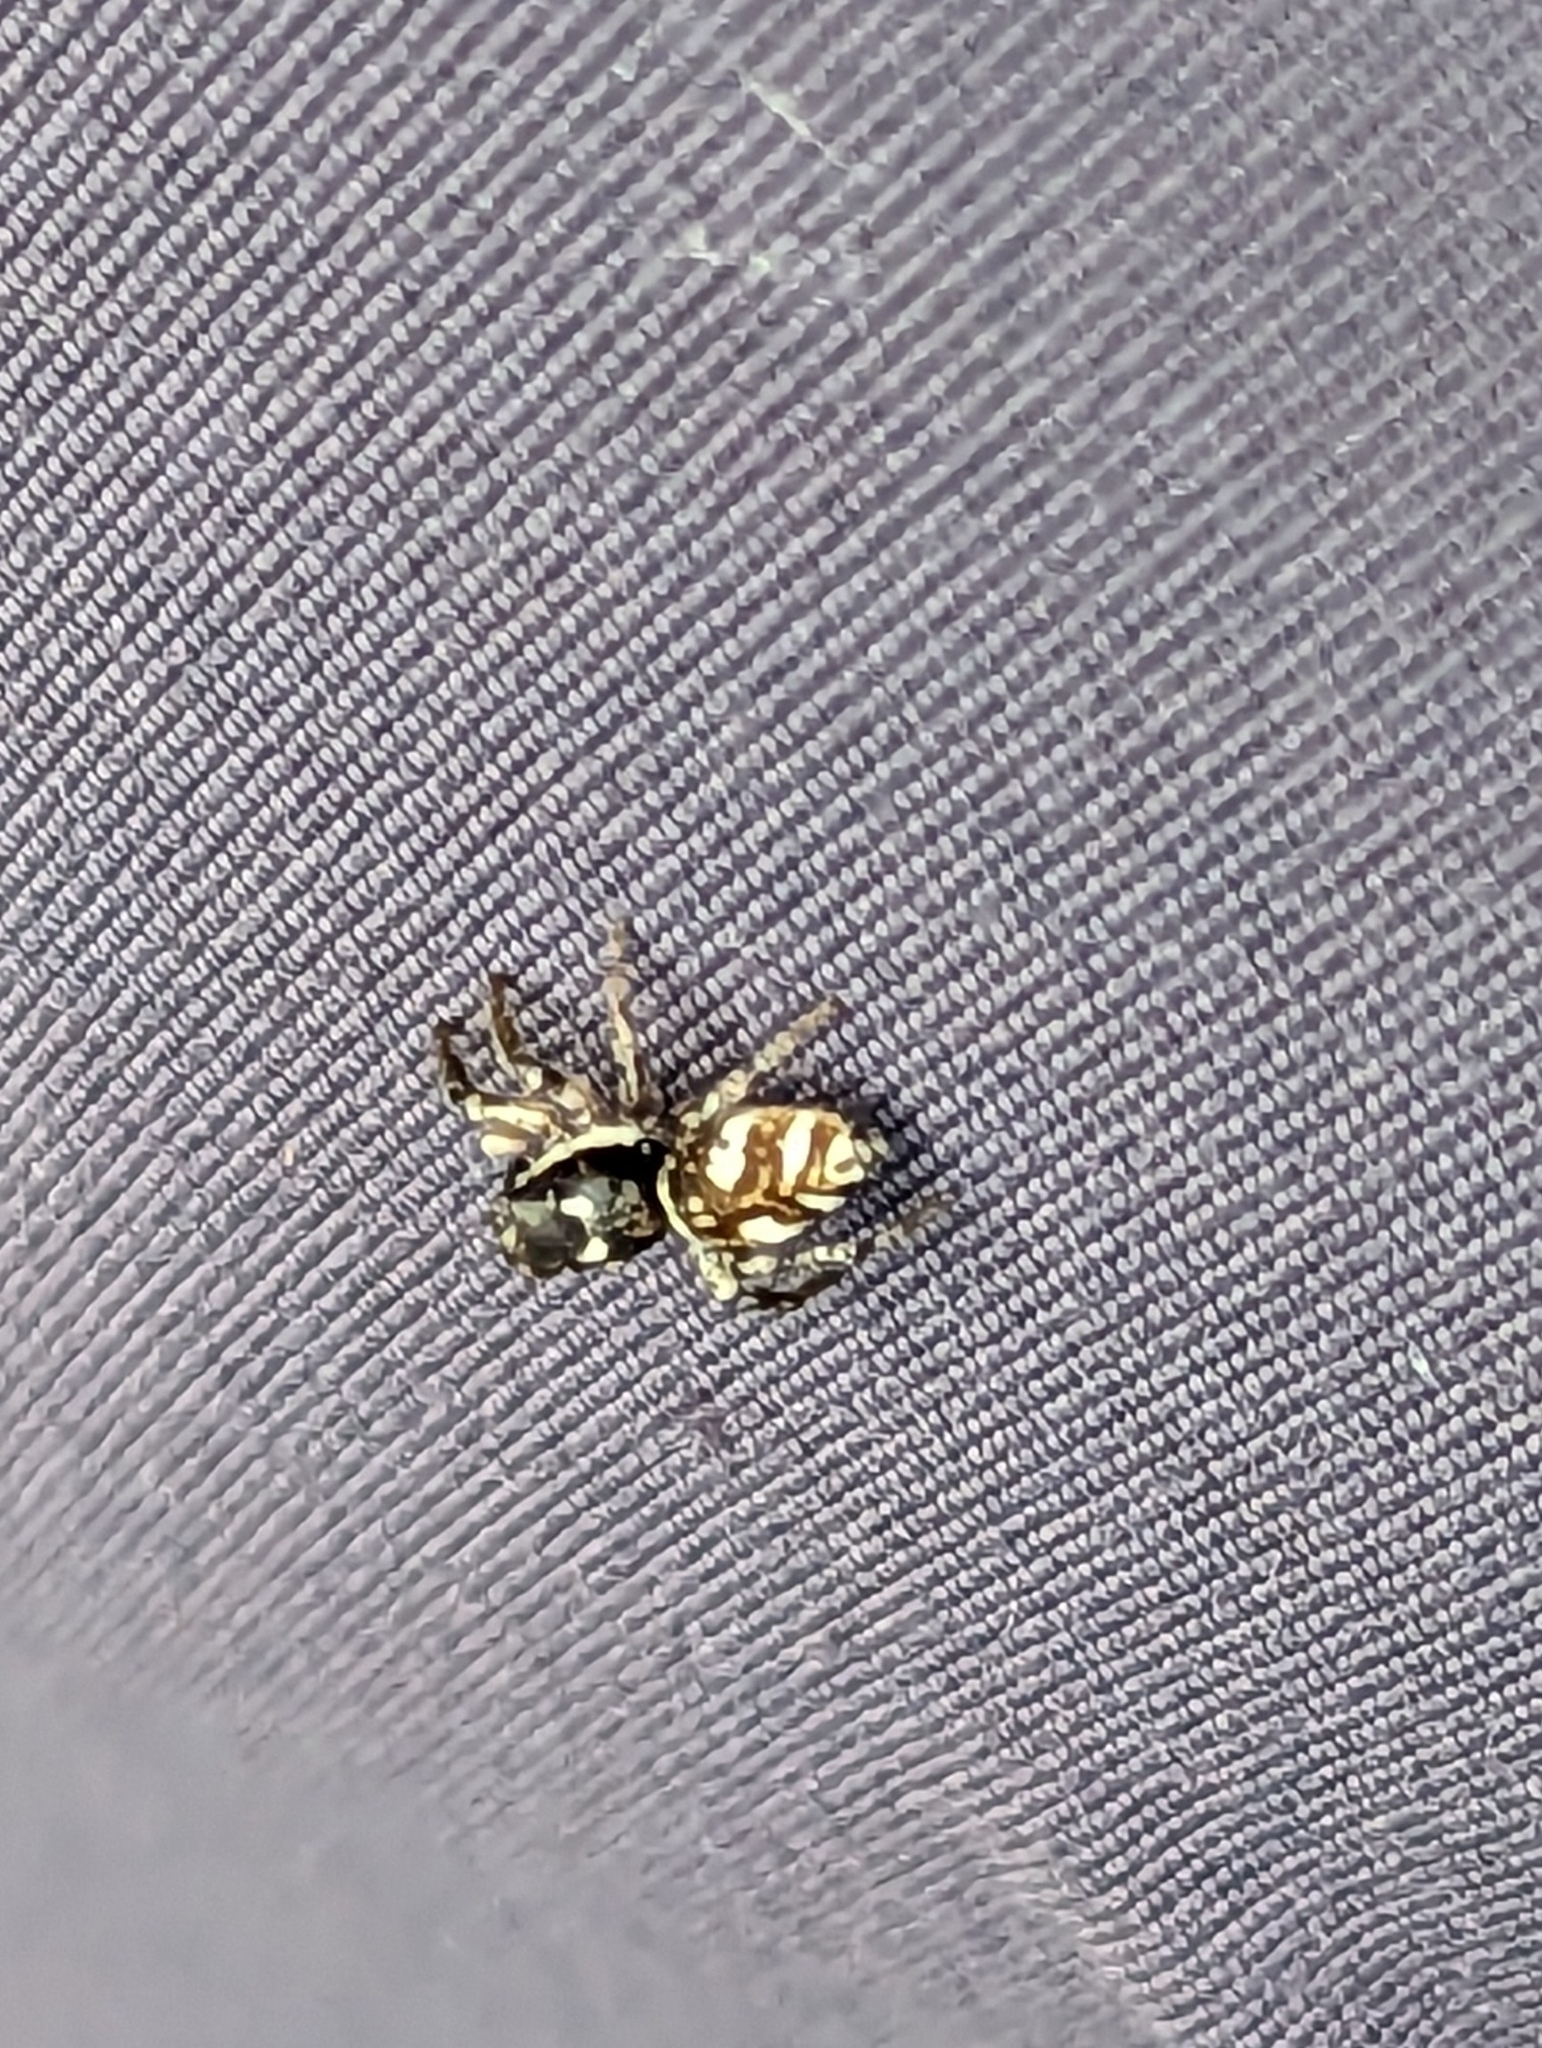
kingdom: Animalia
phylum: Arthropoda
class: Arachnida
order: Araneae
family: Salticidae
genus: Salticus
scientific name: Salticus scenicus
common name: Zebra jumper
